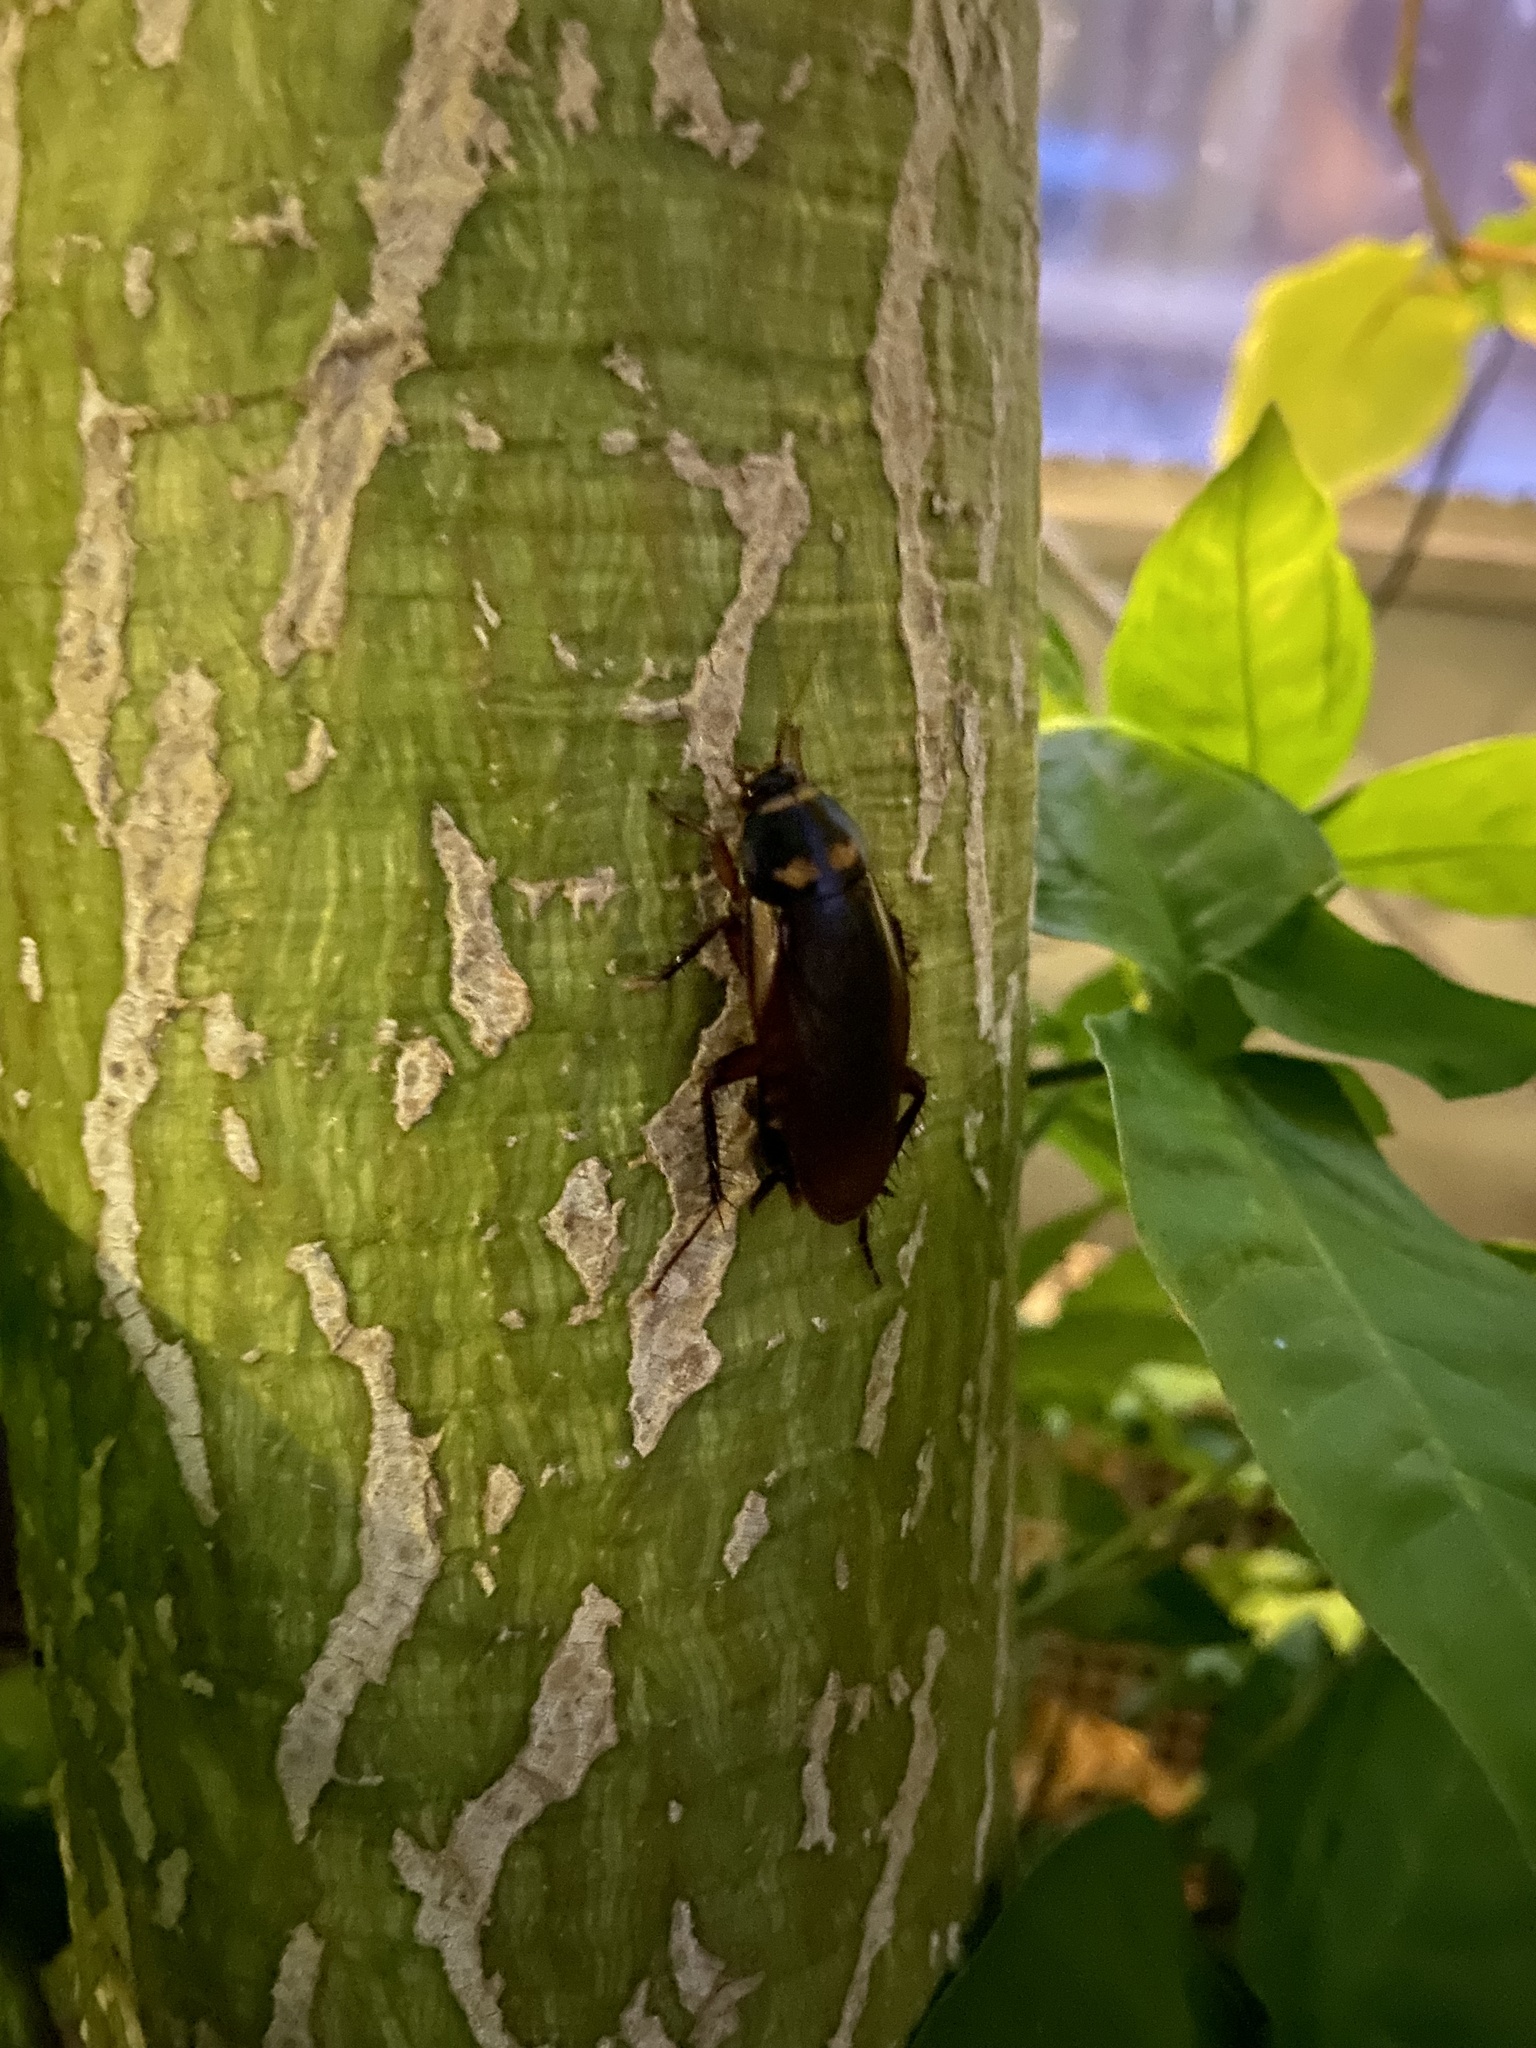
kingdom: Animalia
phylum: Arthropoda
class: Insecta
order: Blattodea
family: Blattidae
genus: Periplaneta
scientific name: Periplaneta australasiae
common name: Australian cockroach
